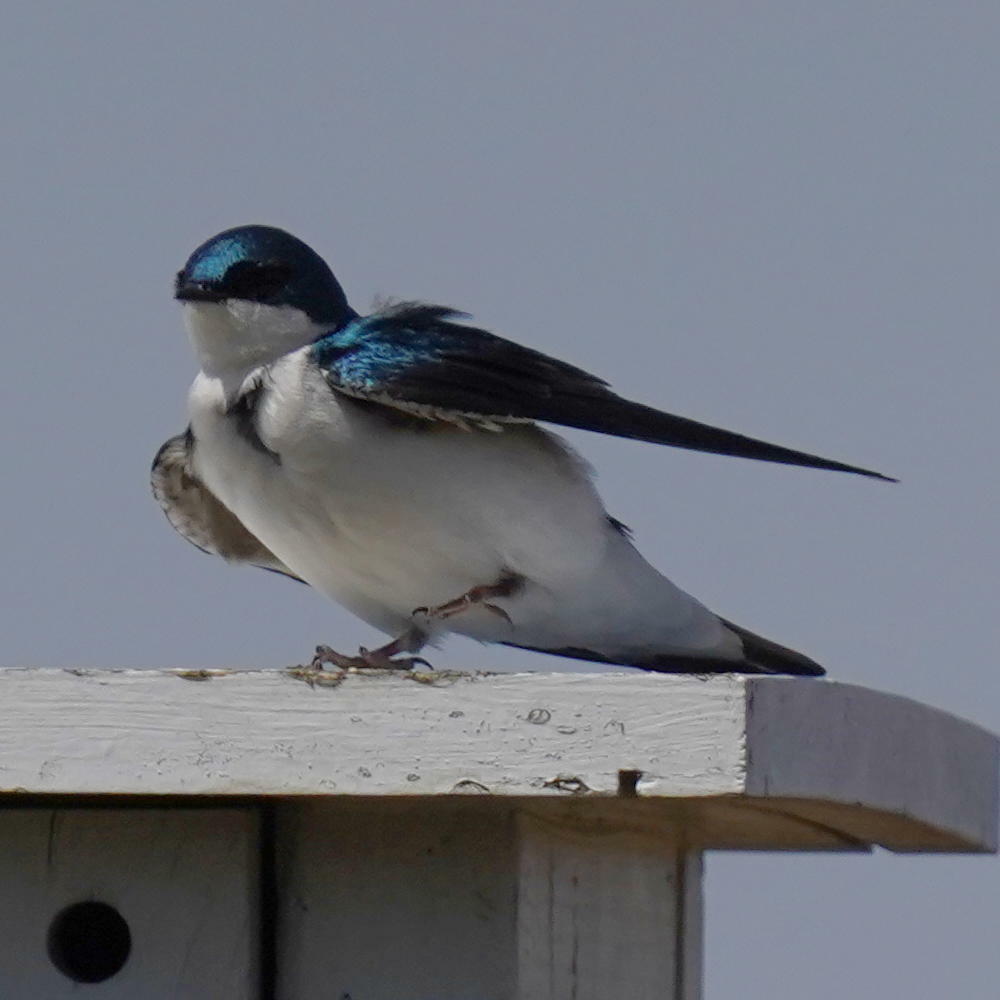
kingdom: Animalia
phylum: Chordata
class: Aves
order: Passeriformes
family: Hirundinidae
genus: Tachycineta
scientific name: Tachycineta bicolor
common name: Tree swallow
